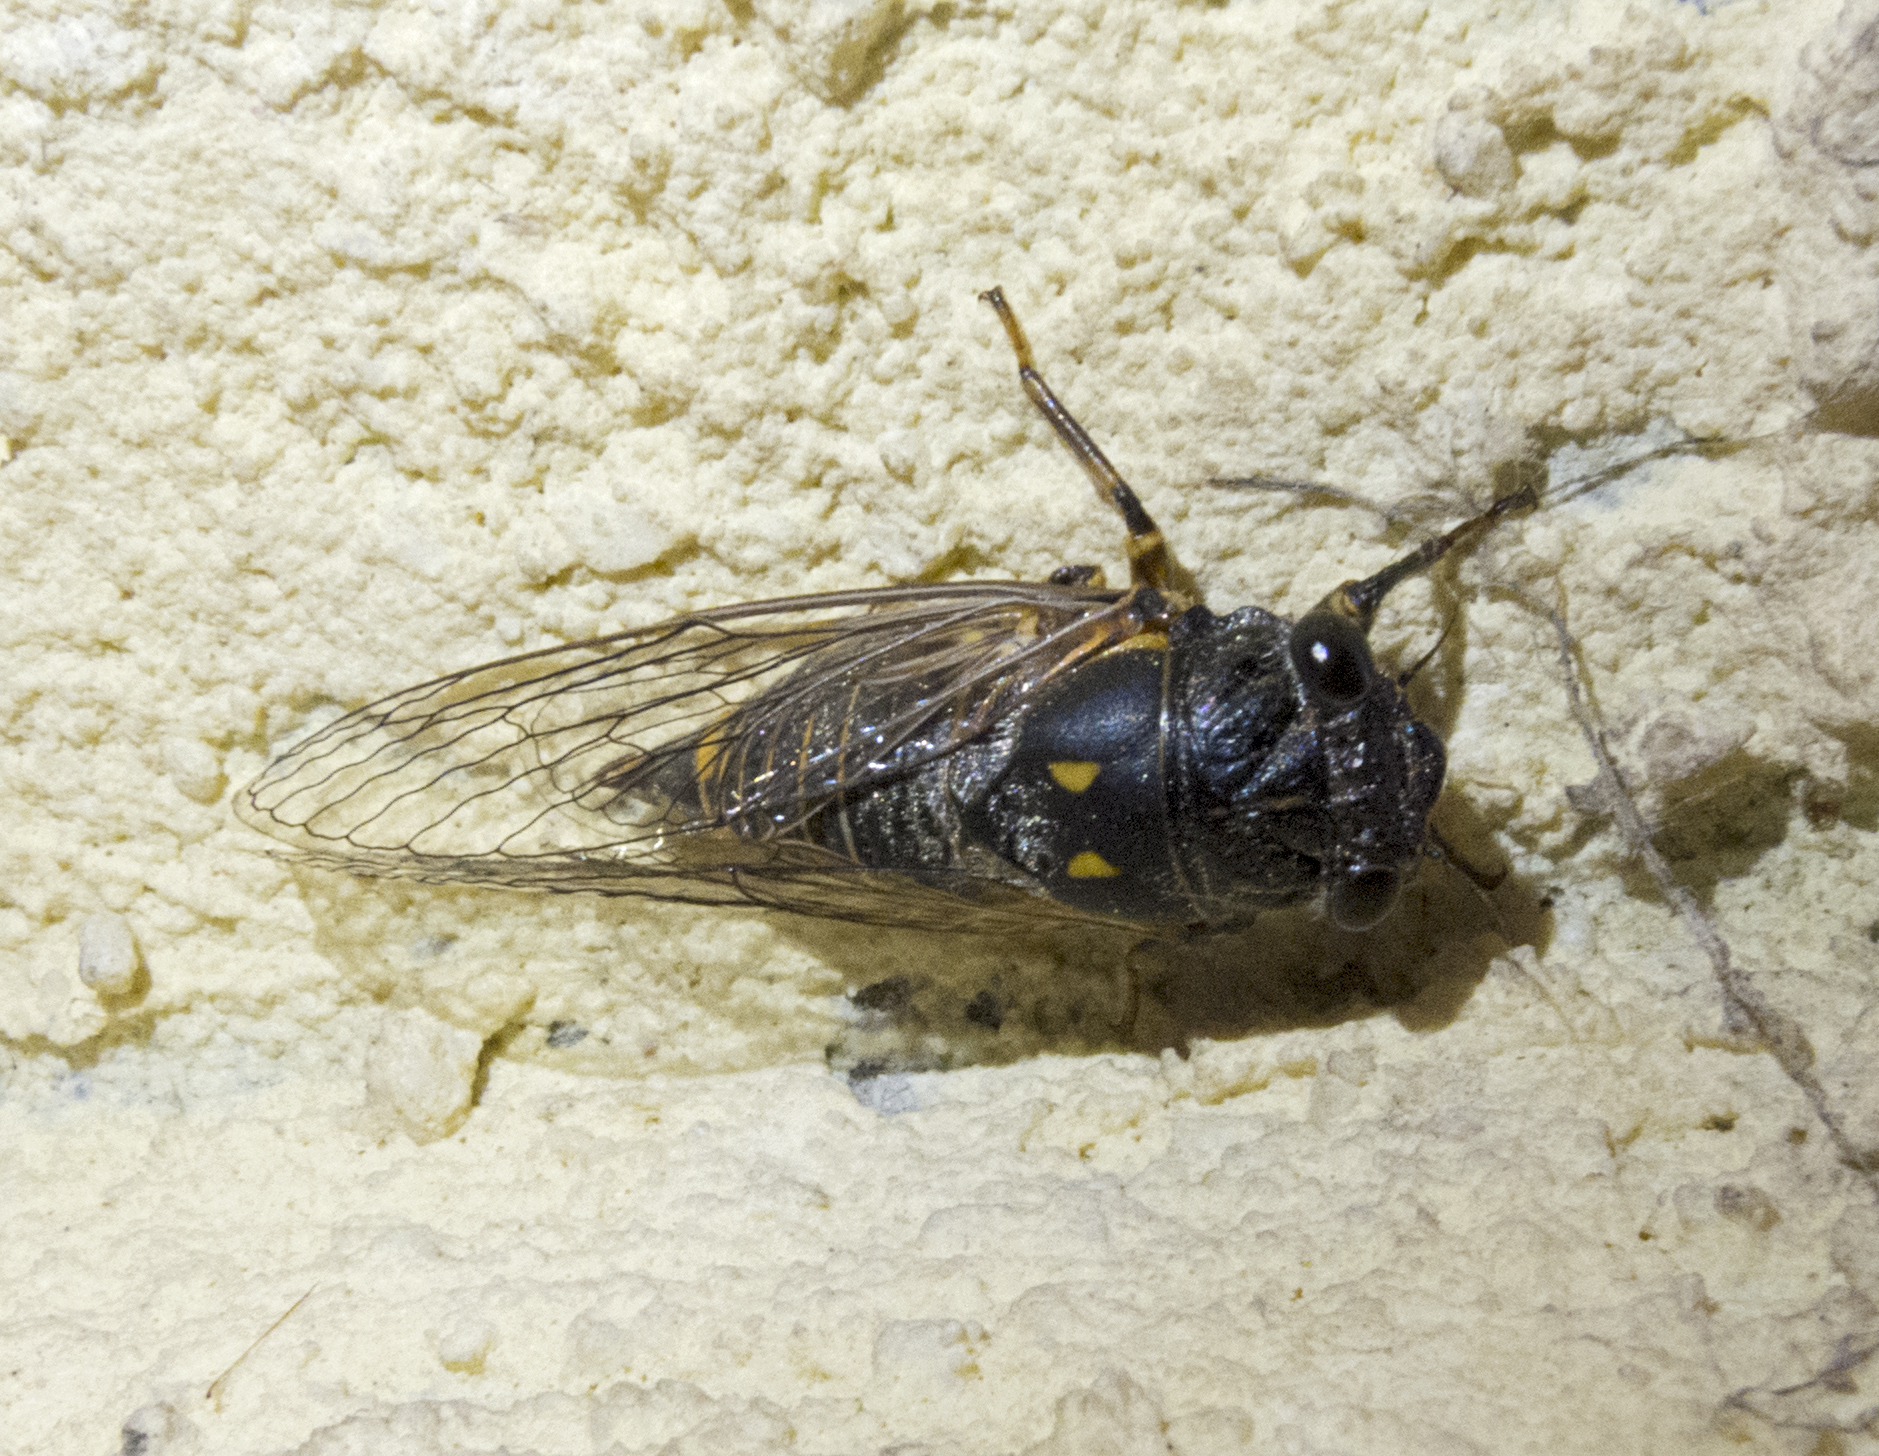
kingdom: Animalia
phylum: Arthropoda
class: Insecta
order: Hemiptera
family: Cicadidae
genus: Dimissalna
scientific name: Dimissalna dimissa
